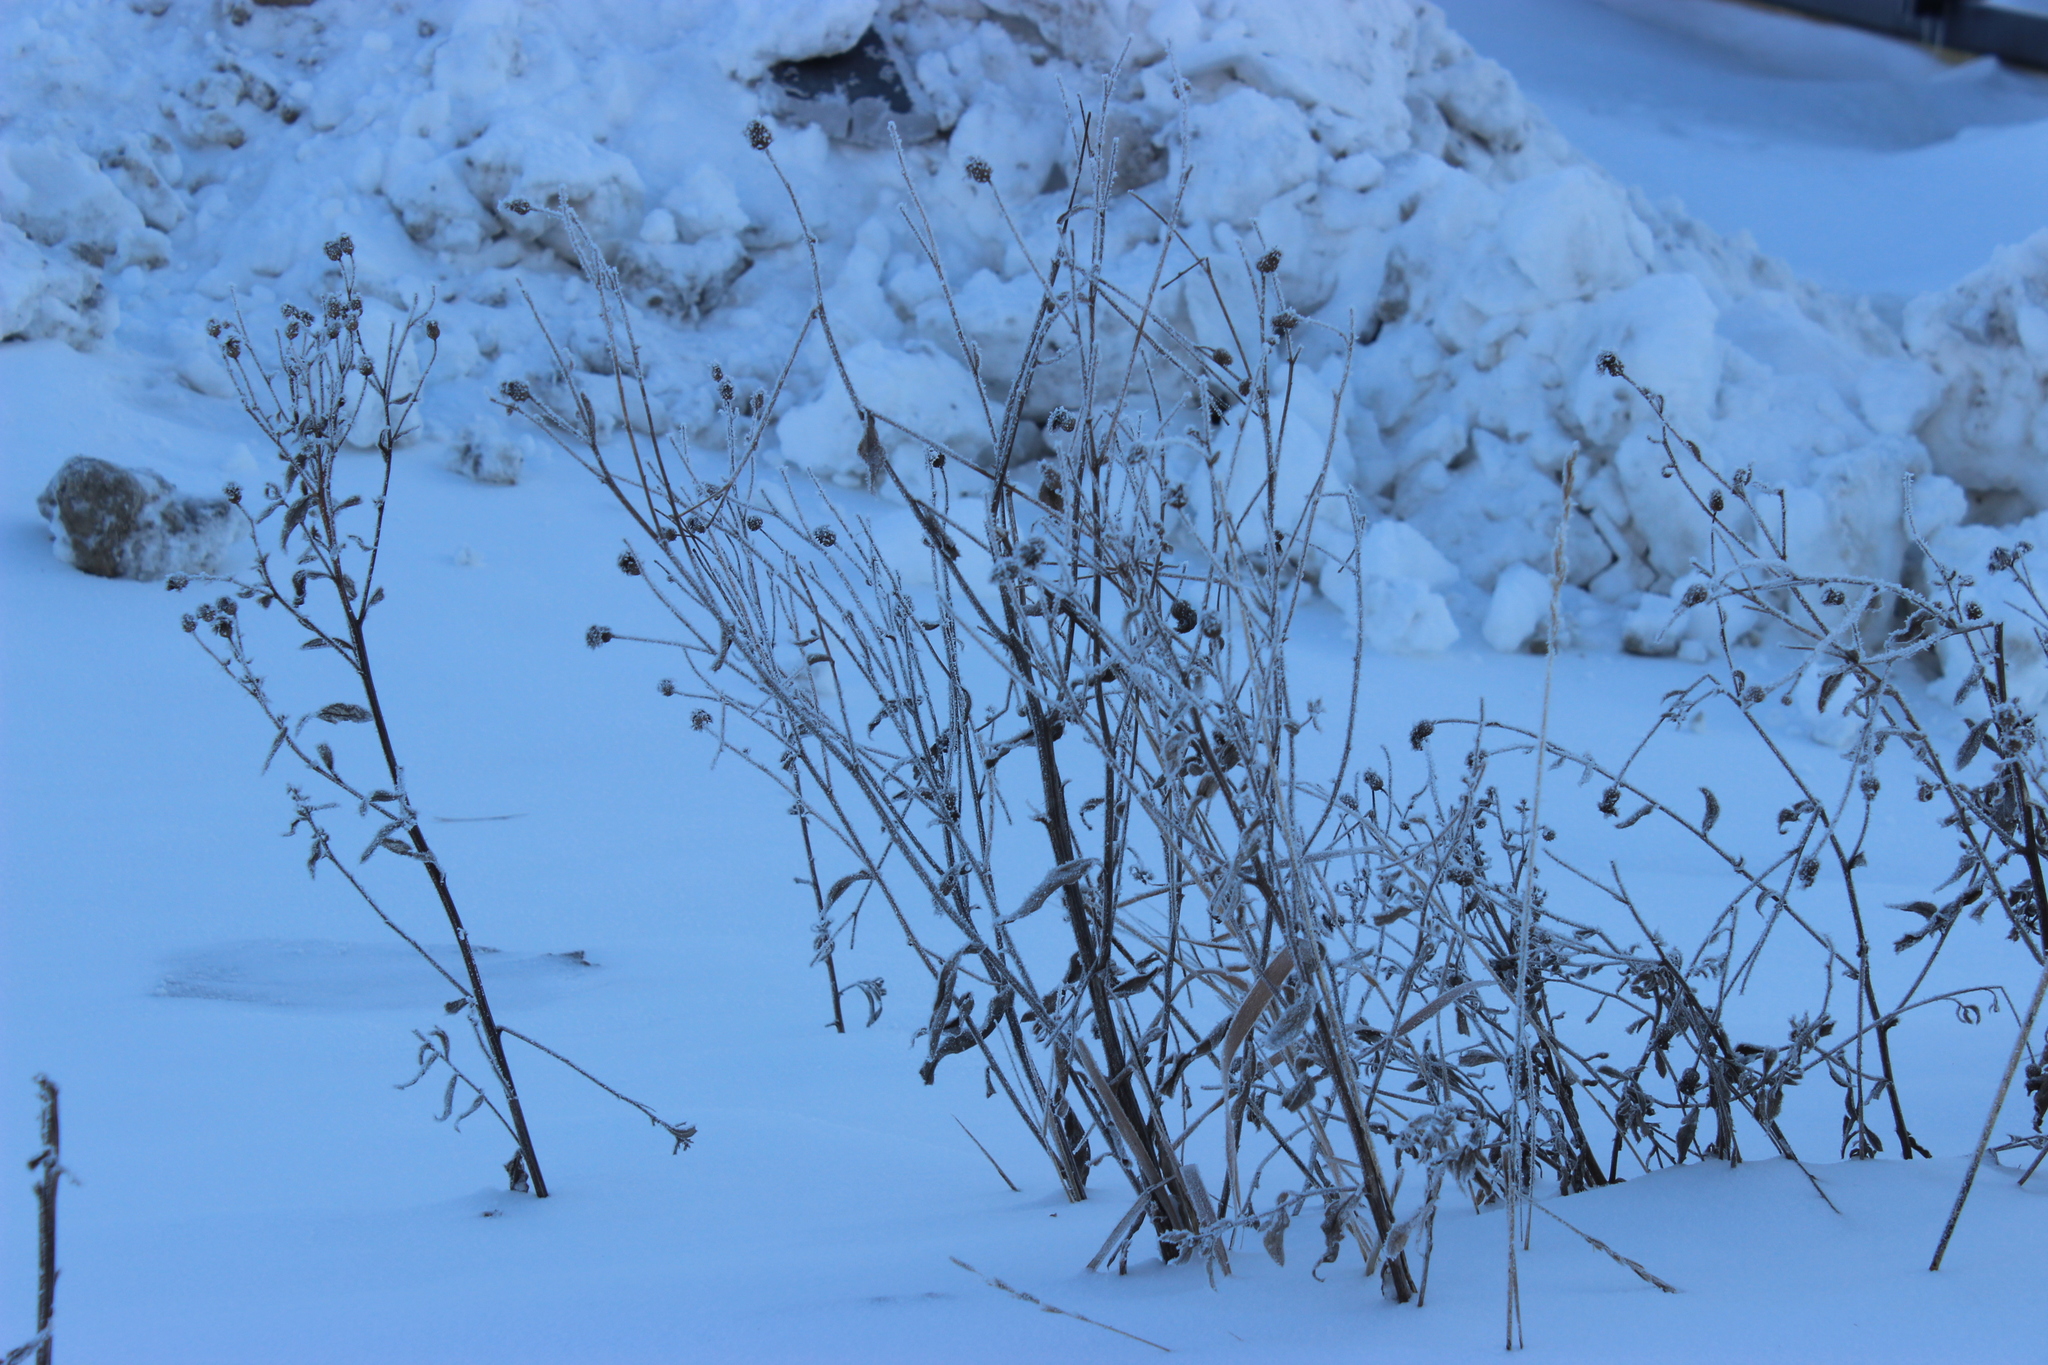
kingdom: Plantae
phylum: Tracheophyta
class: Magnoliopsida
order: Asterales
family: Asteraceae
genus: Cirsium
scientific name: Cirsium arvense
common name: Creeping thistle
